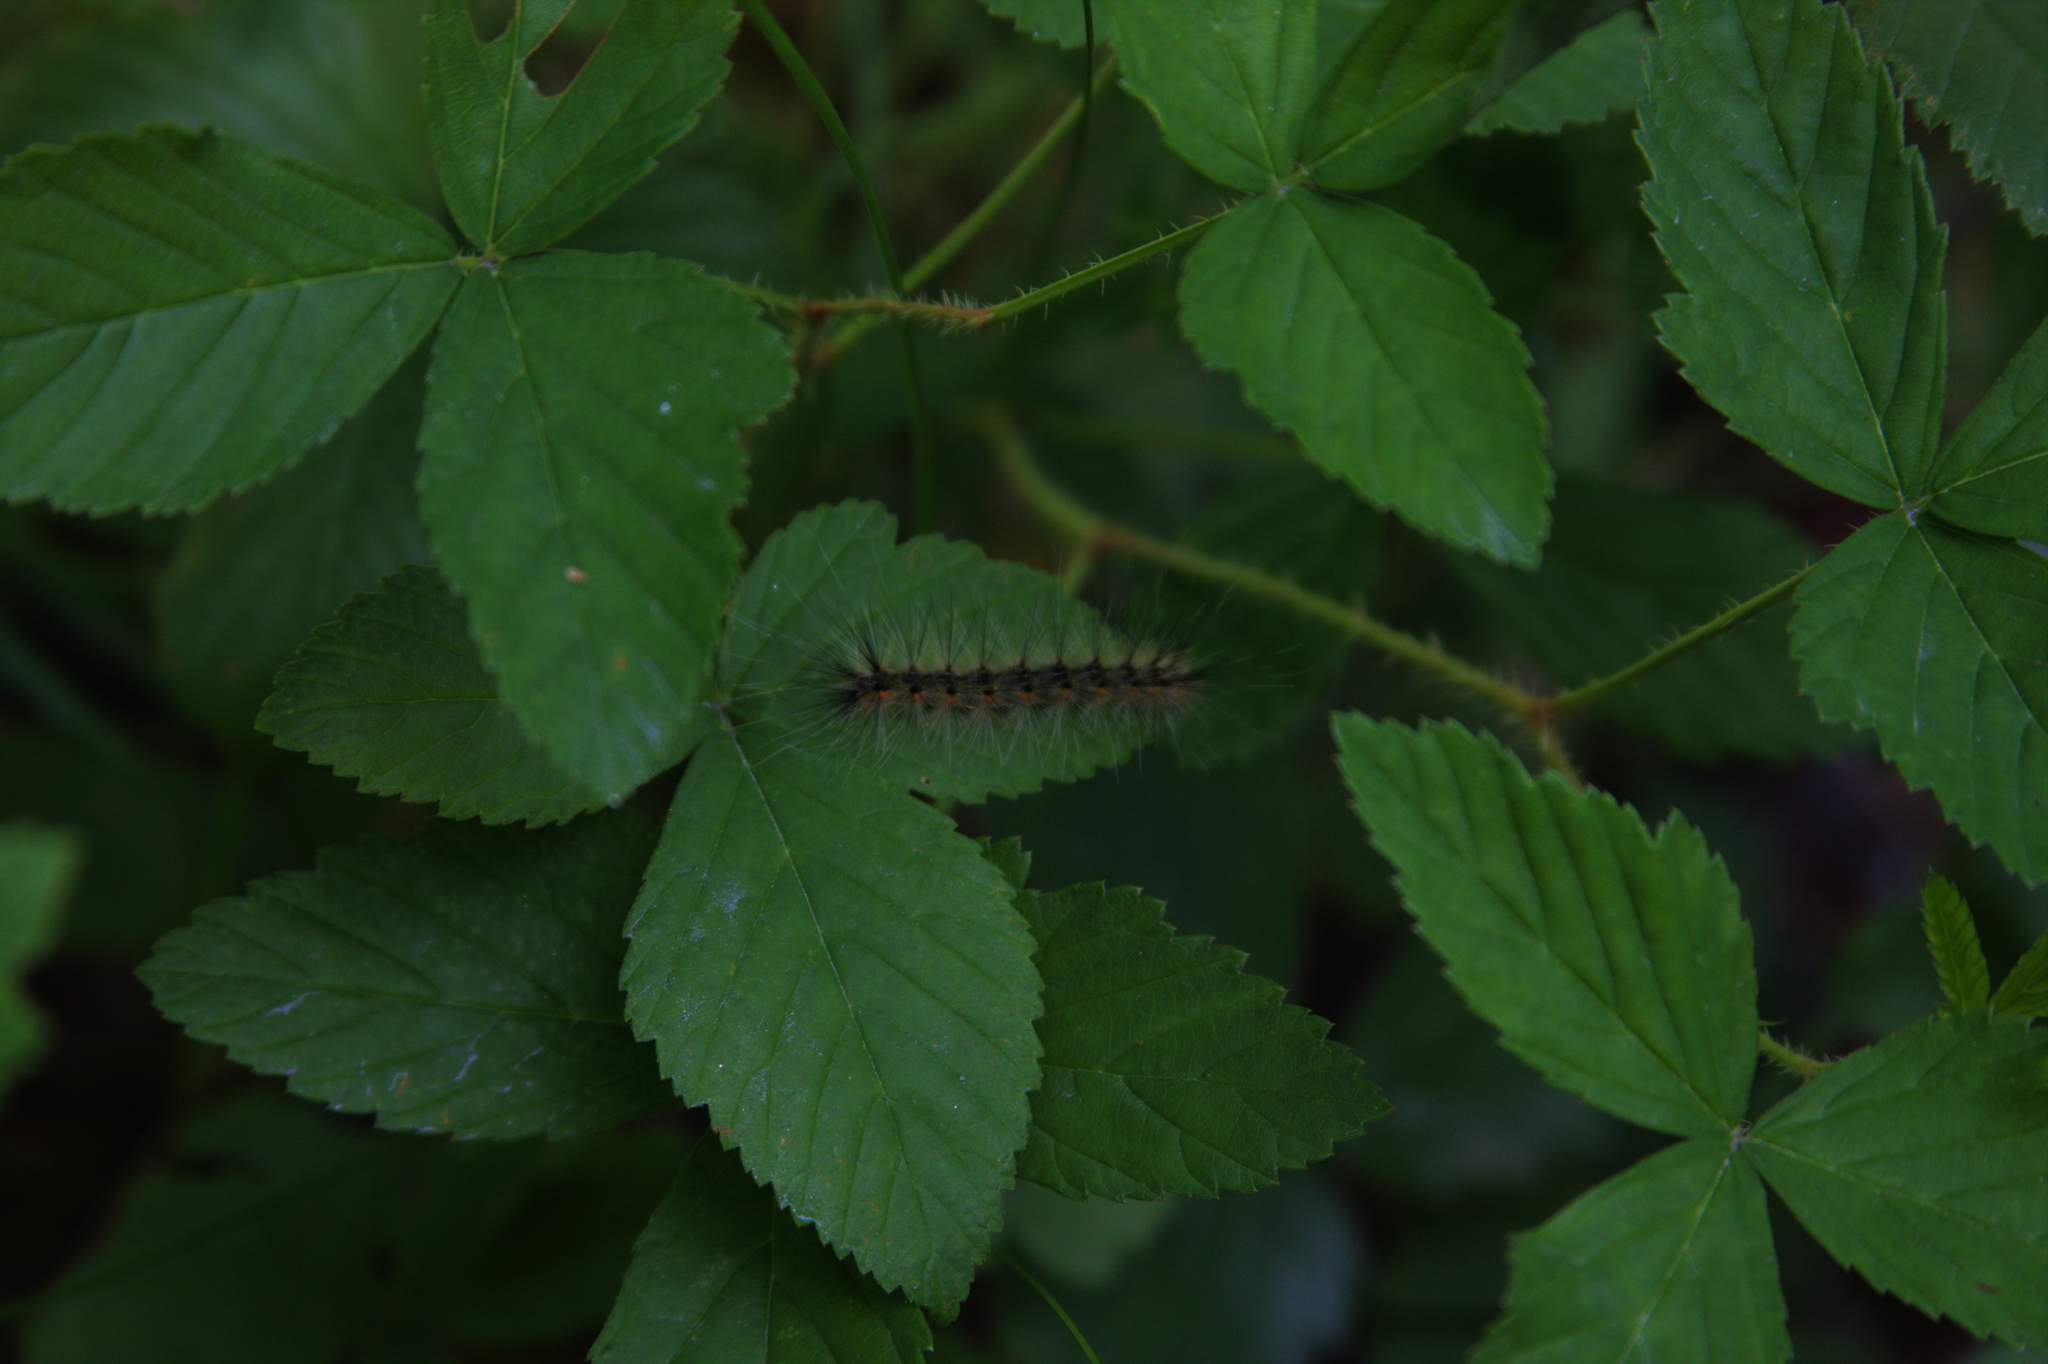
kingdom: Animalia
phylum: Arthropoda
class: Insecta
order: Lepidoptera
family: Erebidae
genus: Hyphantria
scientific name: Hyphantria cunea
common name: American white moth
